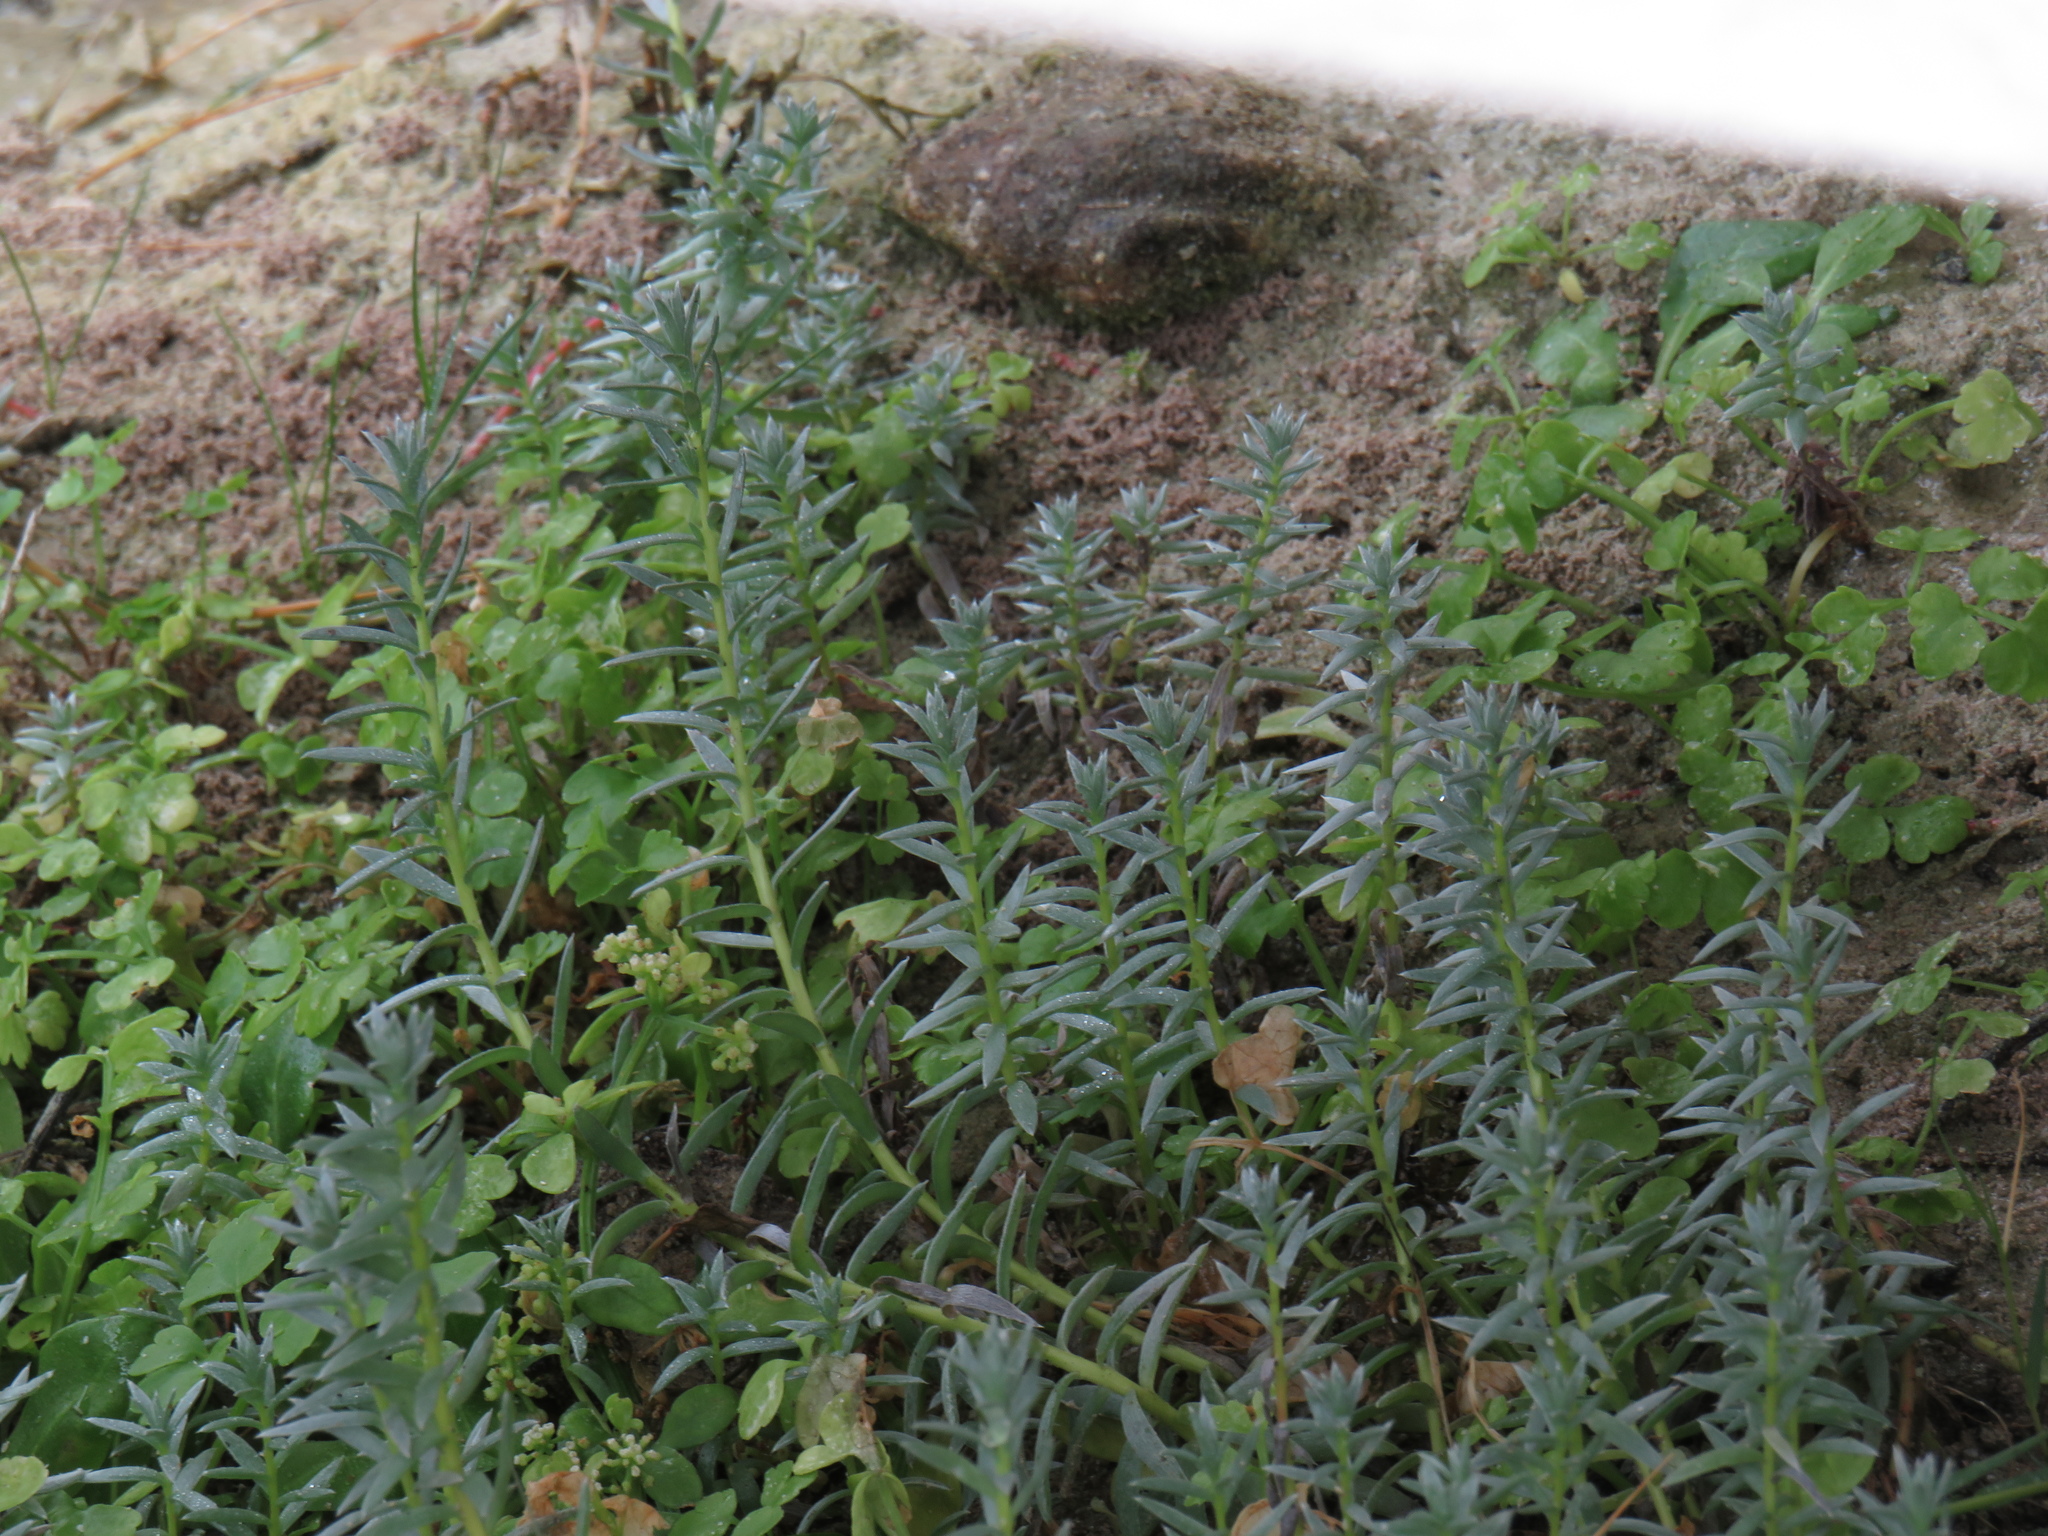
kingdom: Plantae
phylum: Tracheophyta
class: Magnoliopsida
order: Apiales
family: Apiaceae
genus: Apium
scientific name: Apium decumbens
